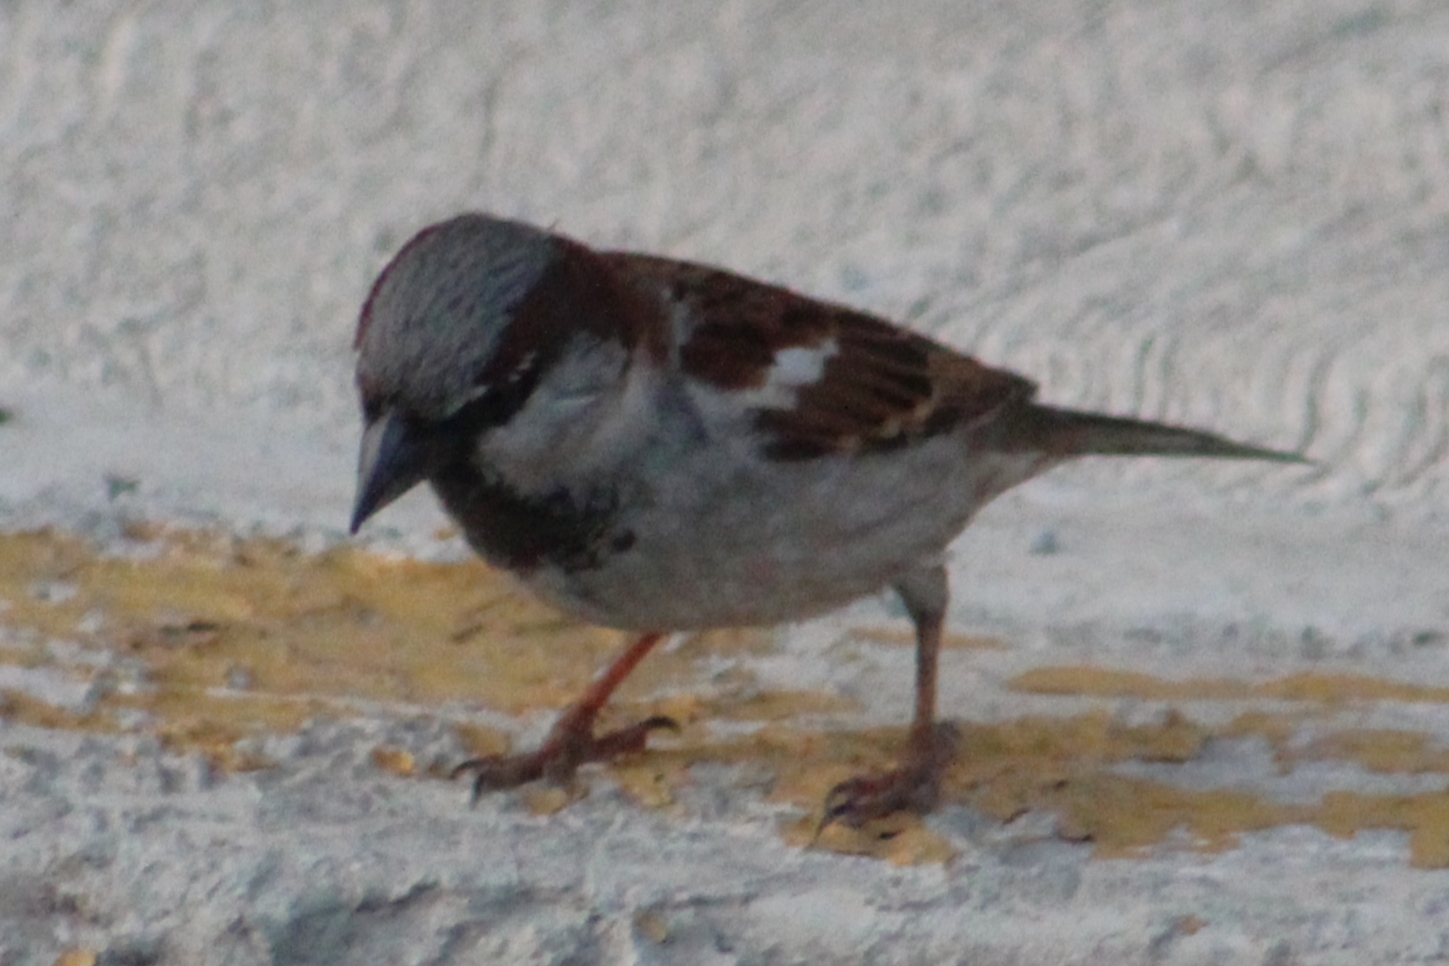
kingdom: Animalia
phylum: Chordata
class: Aves
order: Passeriformes
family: Passeridae
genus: Passer
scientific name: Passer domesticus
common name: House sparrow
